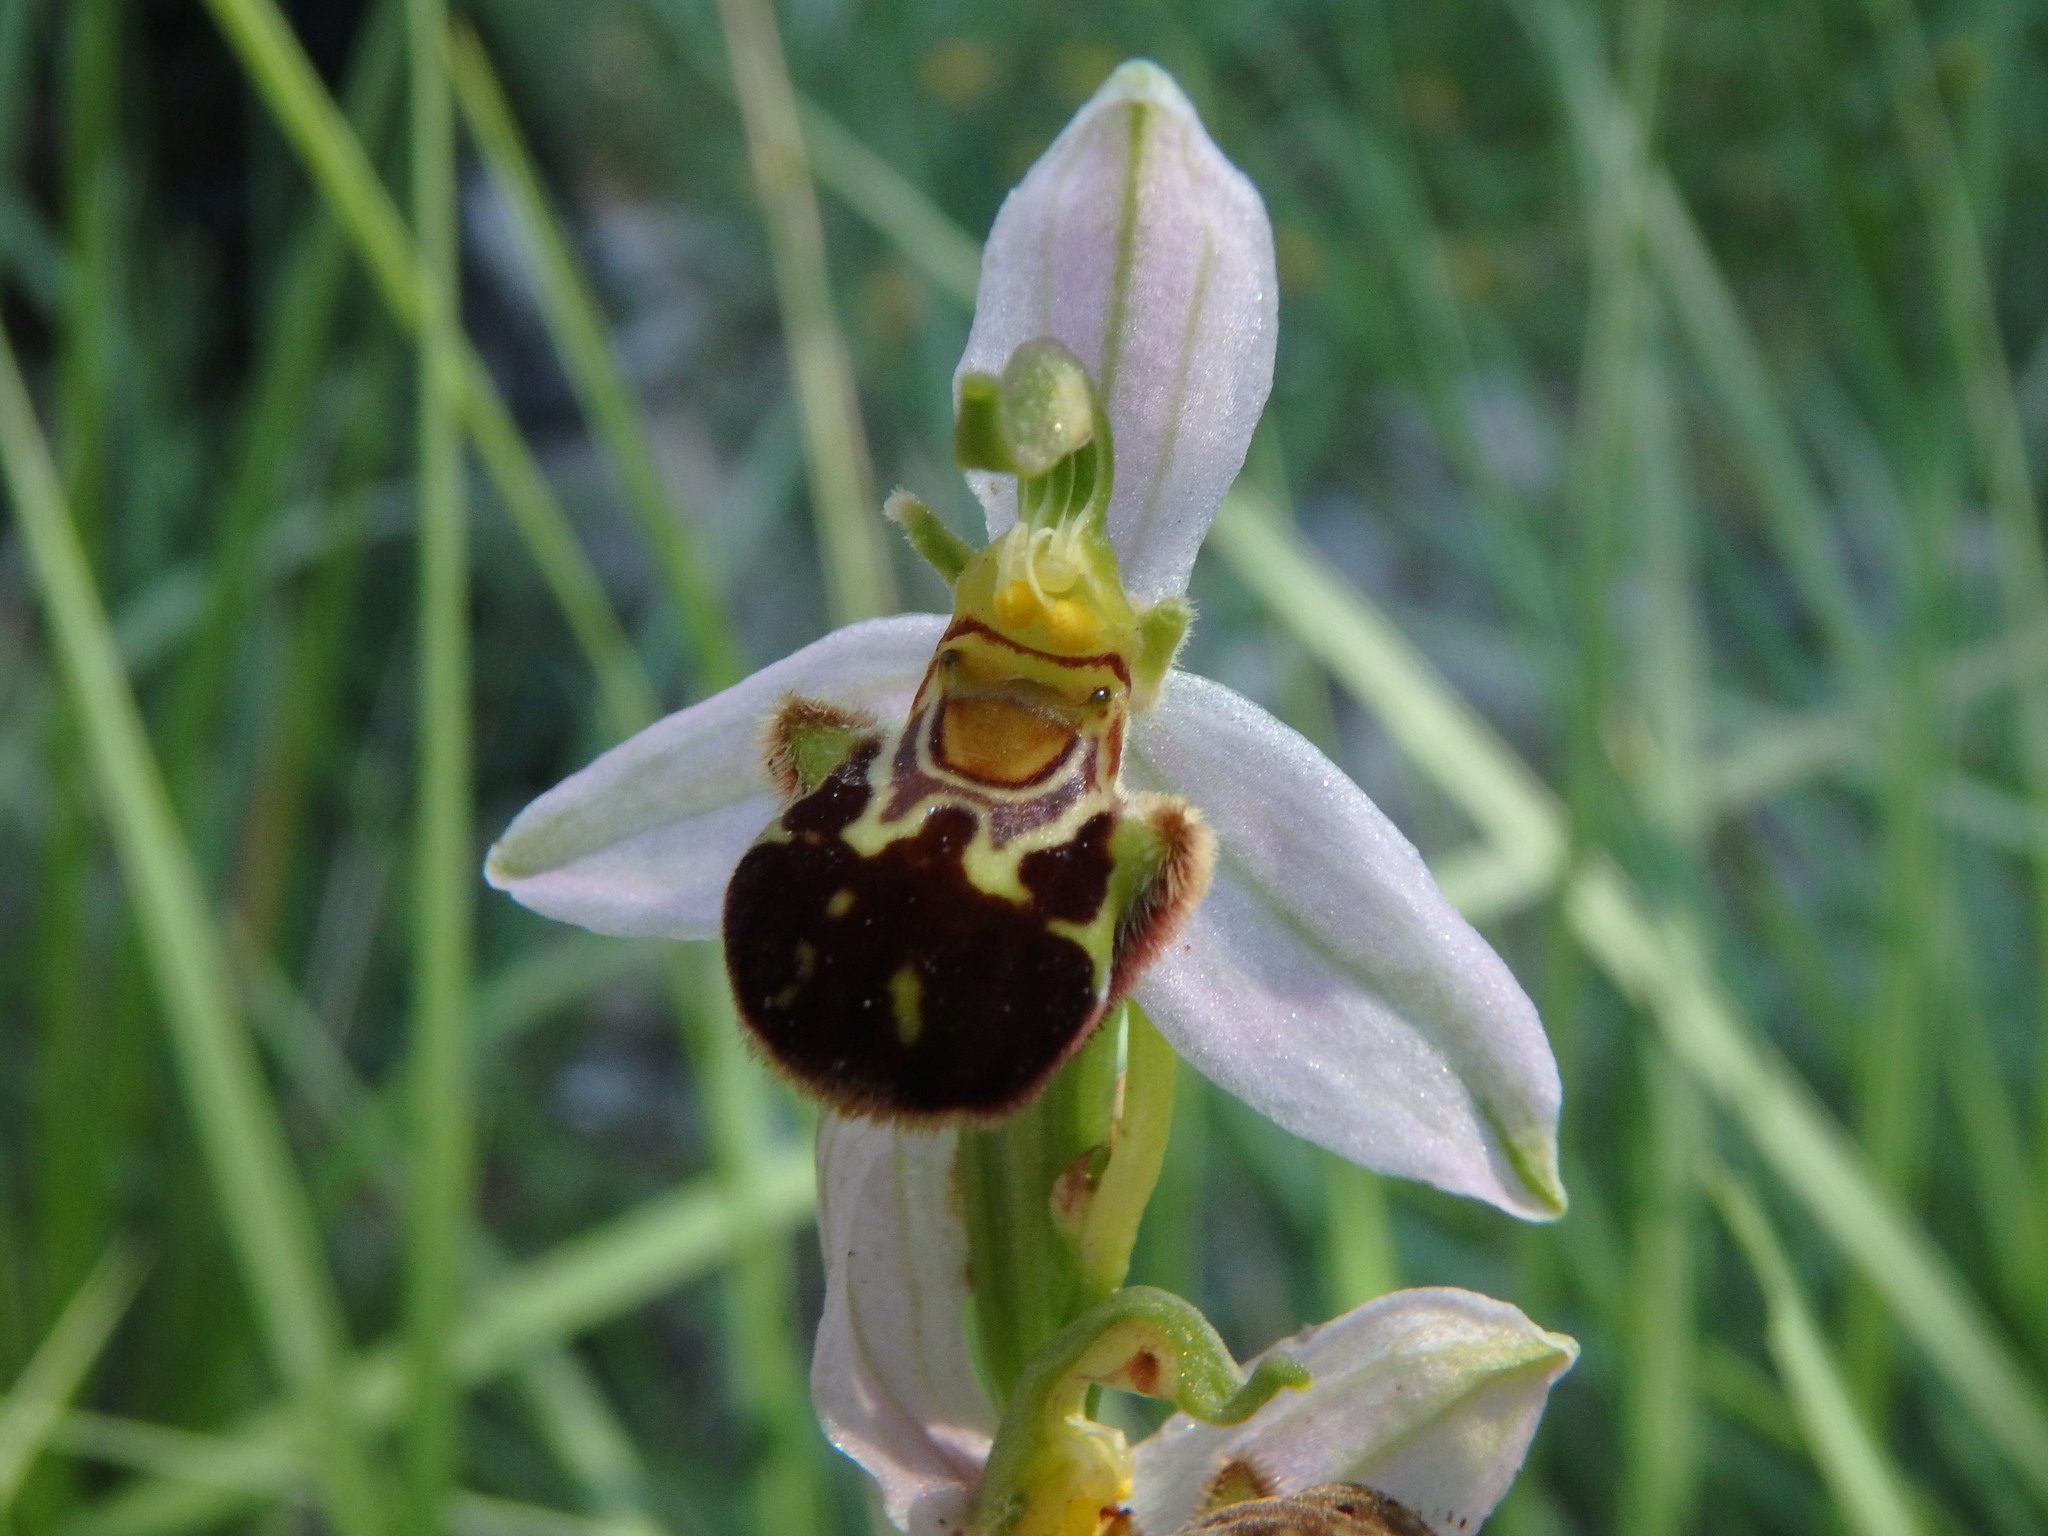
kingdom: Plantae
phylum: Tracheophyta
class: Liliopsida
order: Asparagales
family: Orchidaceae
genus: Ophrys
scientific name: Ophrys apifera
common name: Bee orchid
